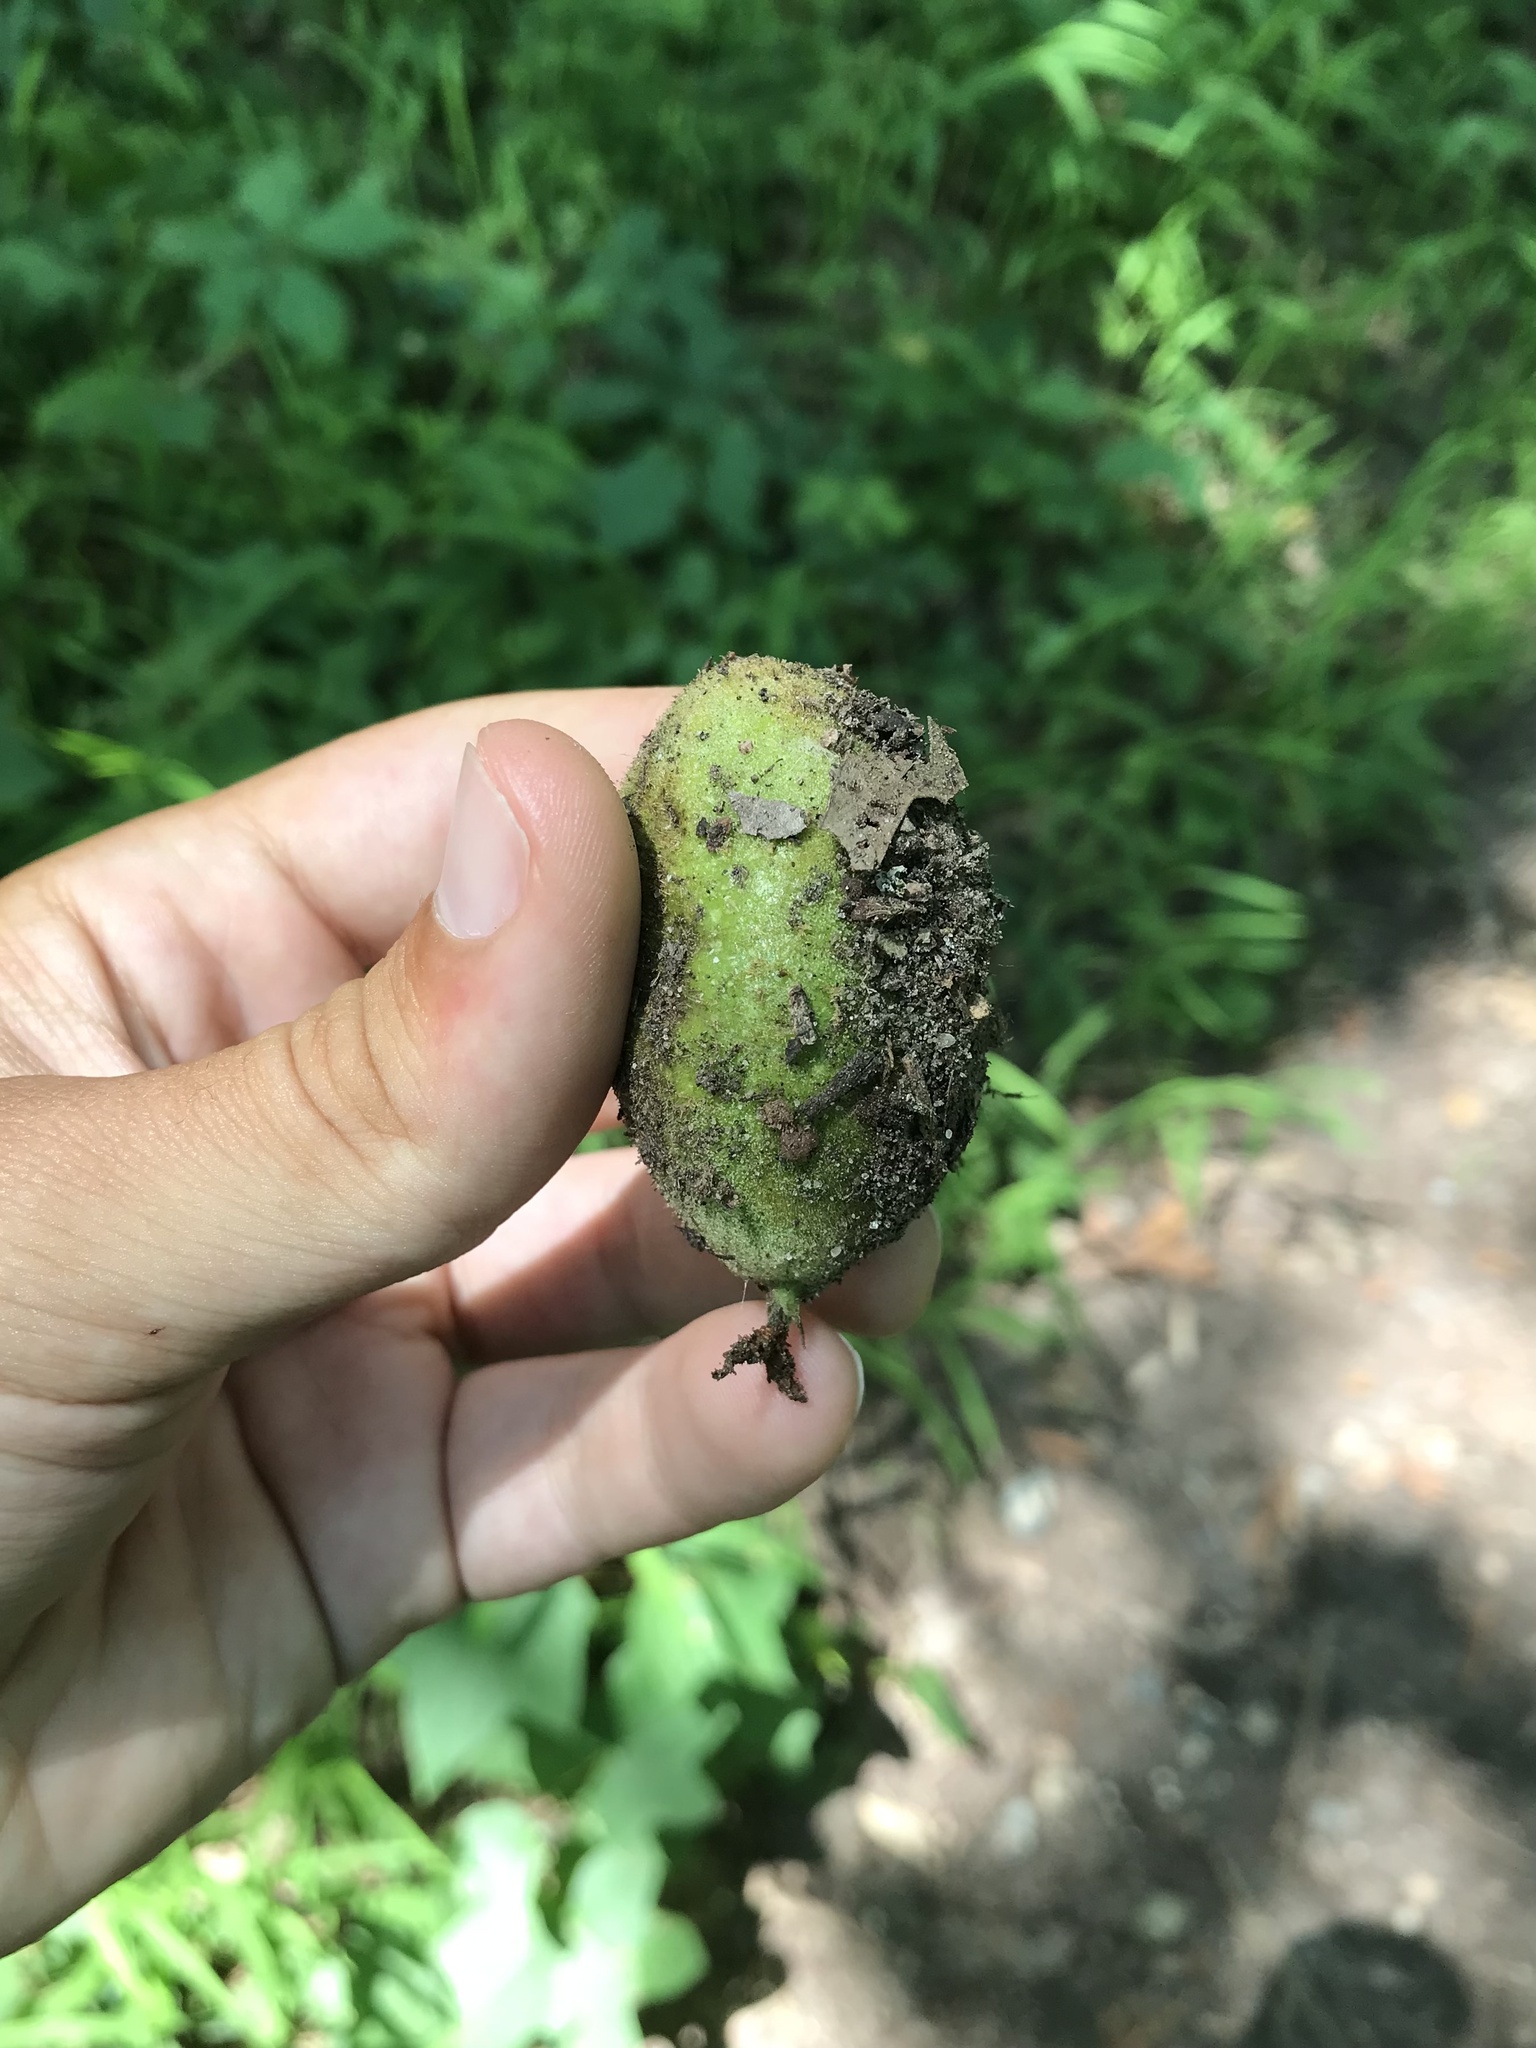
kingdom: Plantae
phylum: Tracheophyta
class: Magnoliopsida
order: Fagales
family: Juglandaceae
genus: Juglans
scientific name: Juglans cinerea
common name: Butternut
